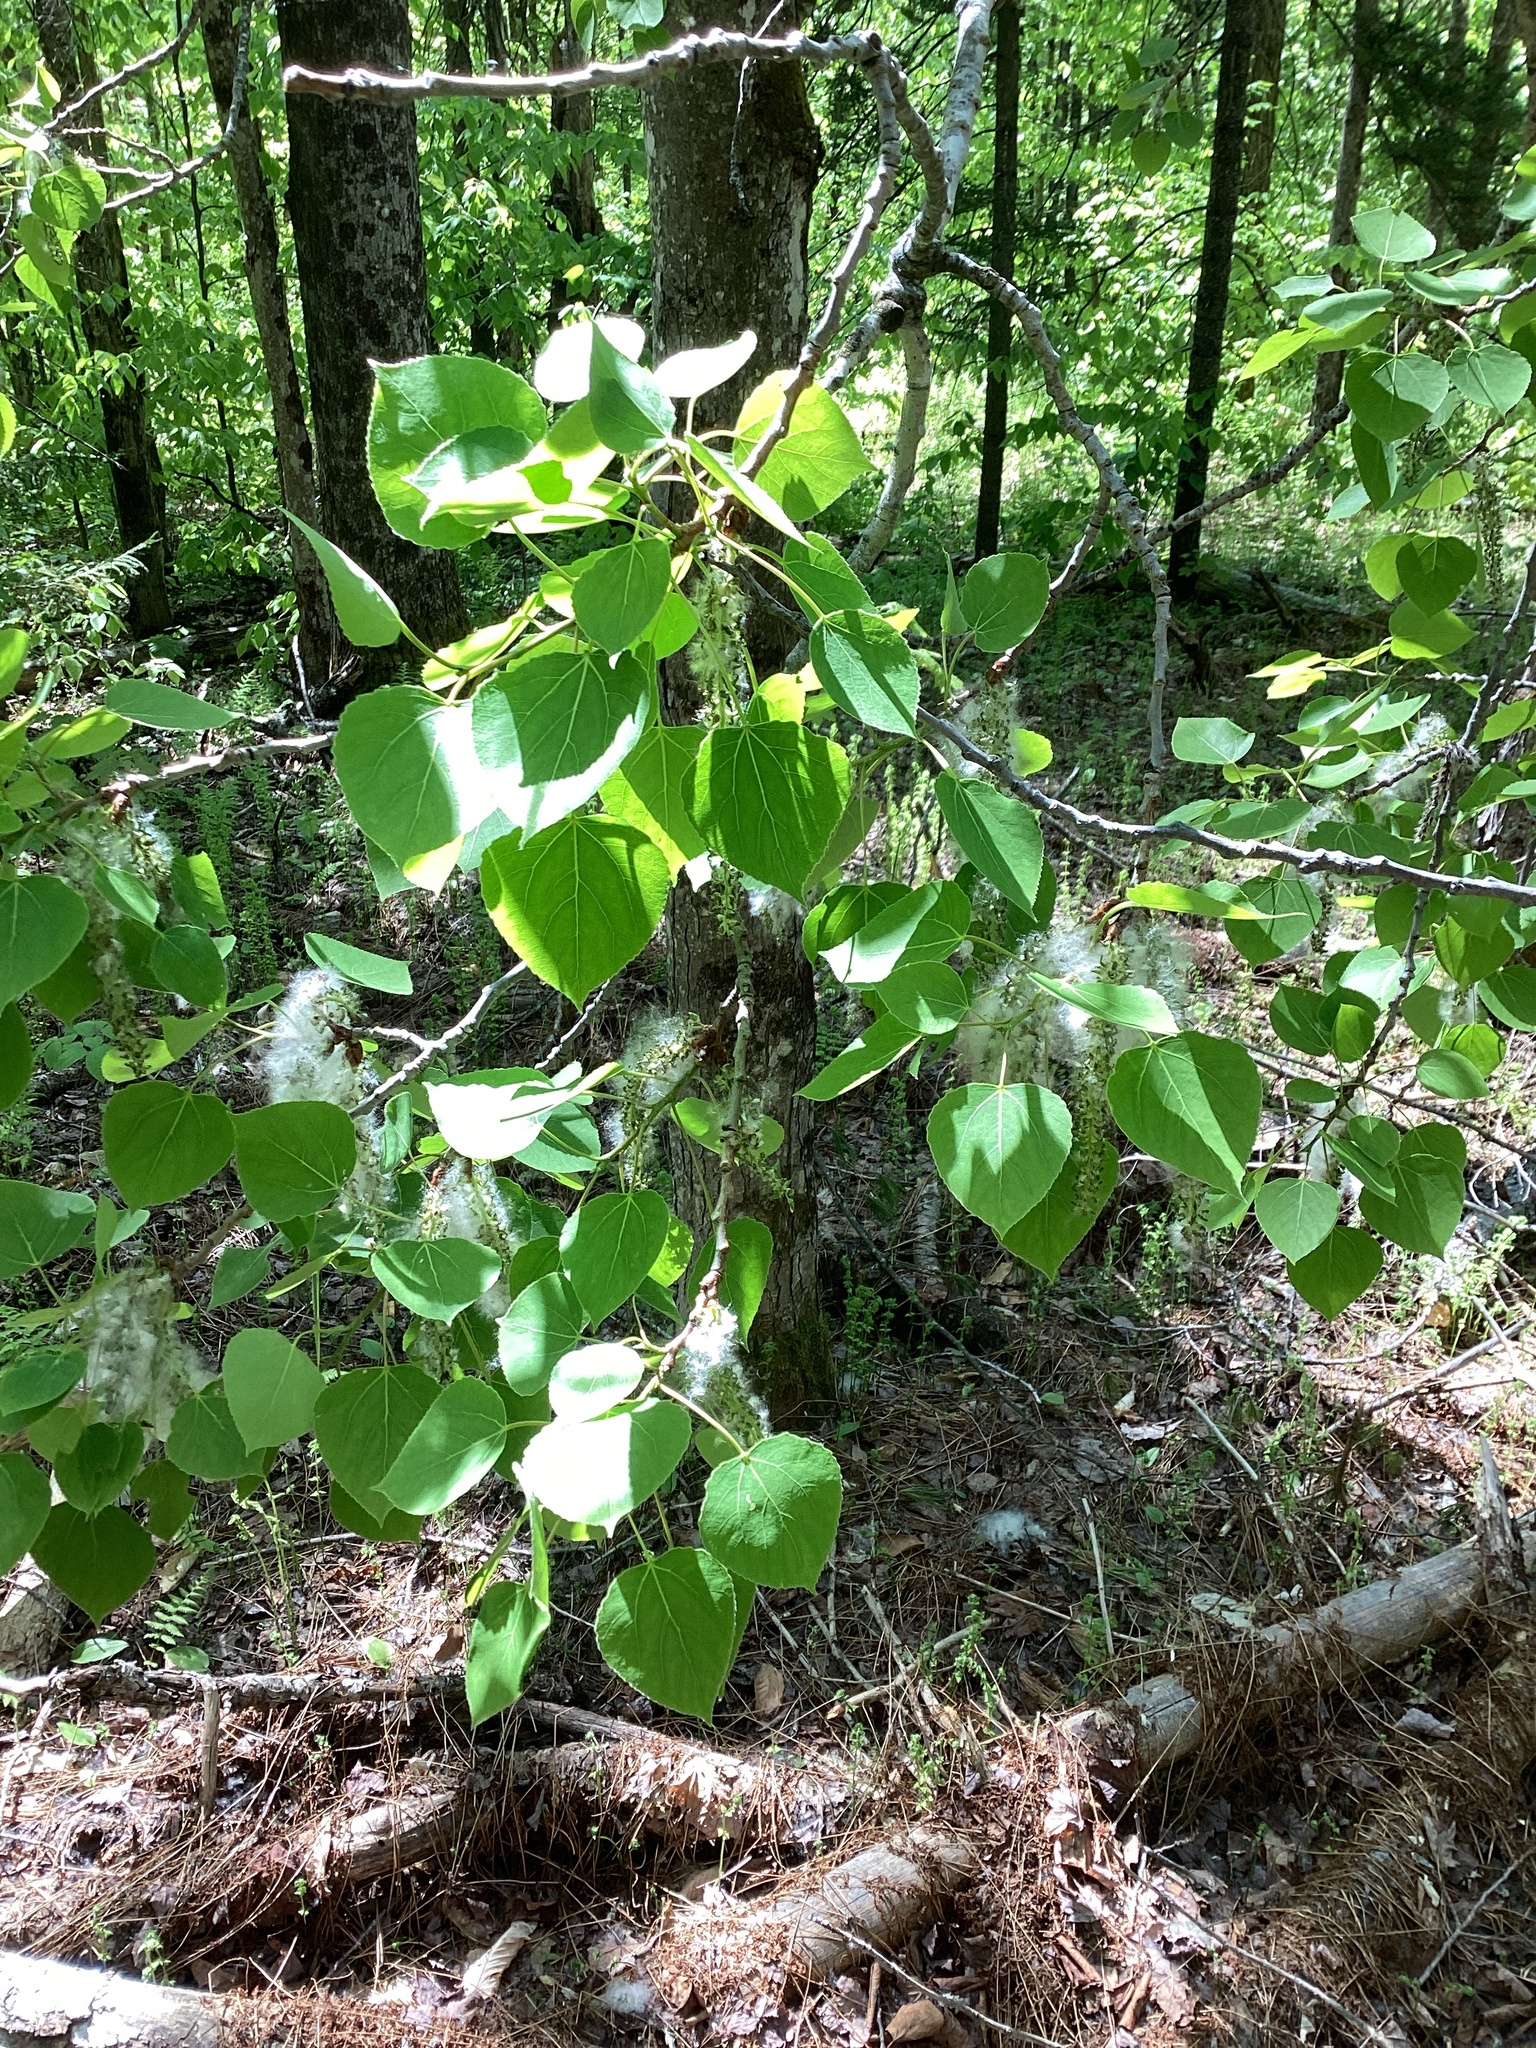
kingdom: Plantae
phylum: Tracheophyta
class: Magnoliopsida
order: Malpighiales
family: Salicaceae
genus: Populus
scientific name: Populus tremuloides
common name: Quaking aspen
